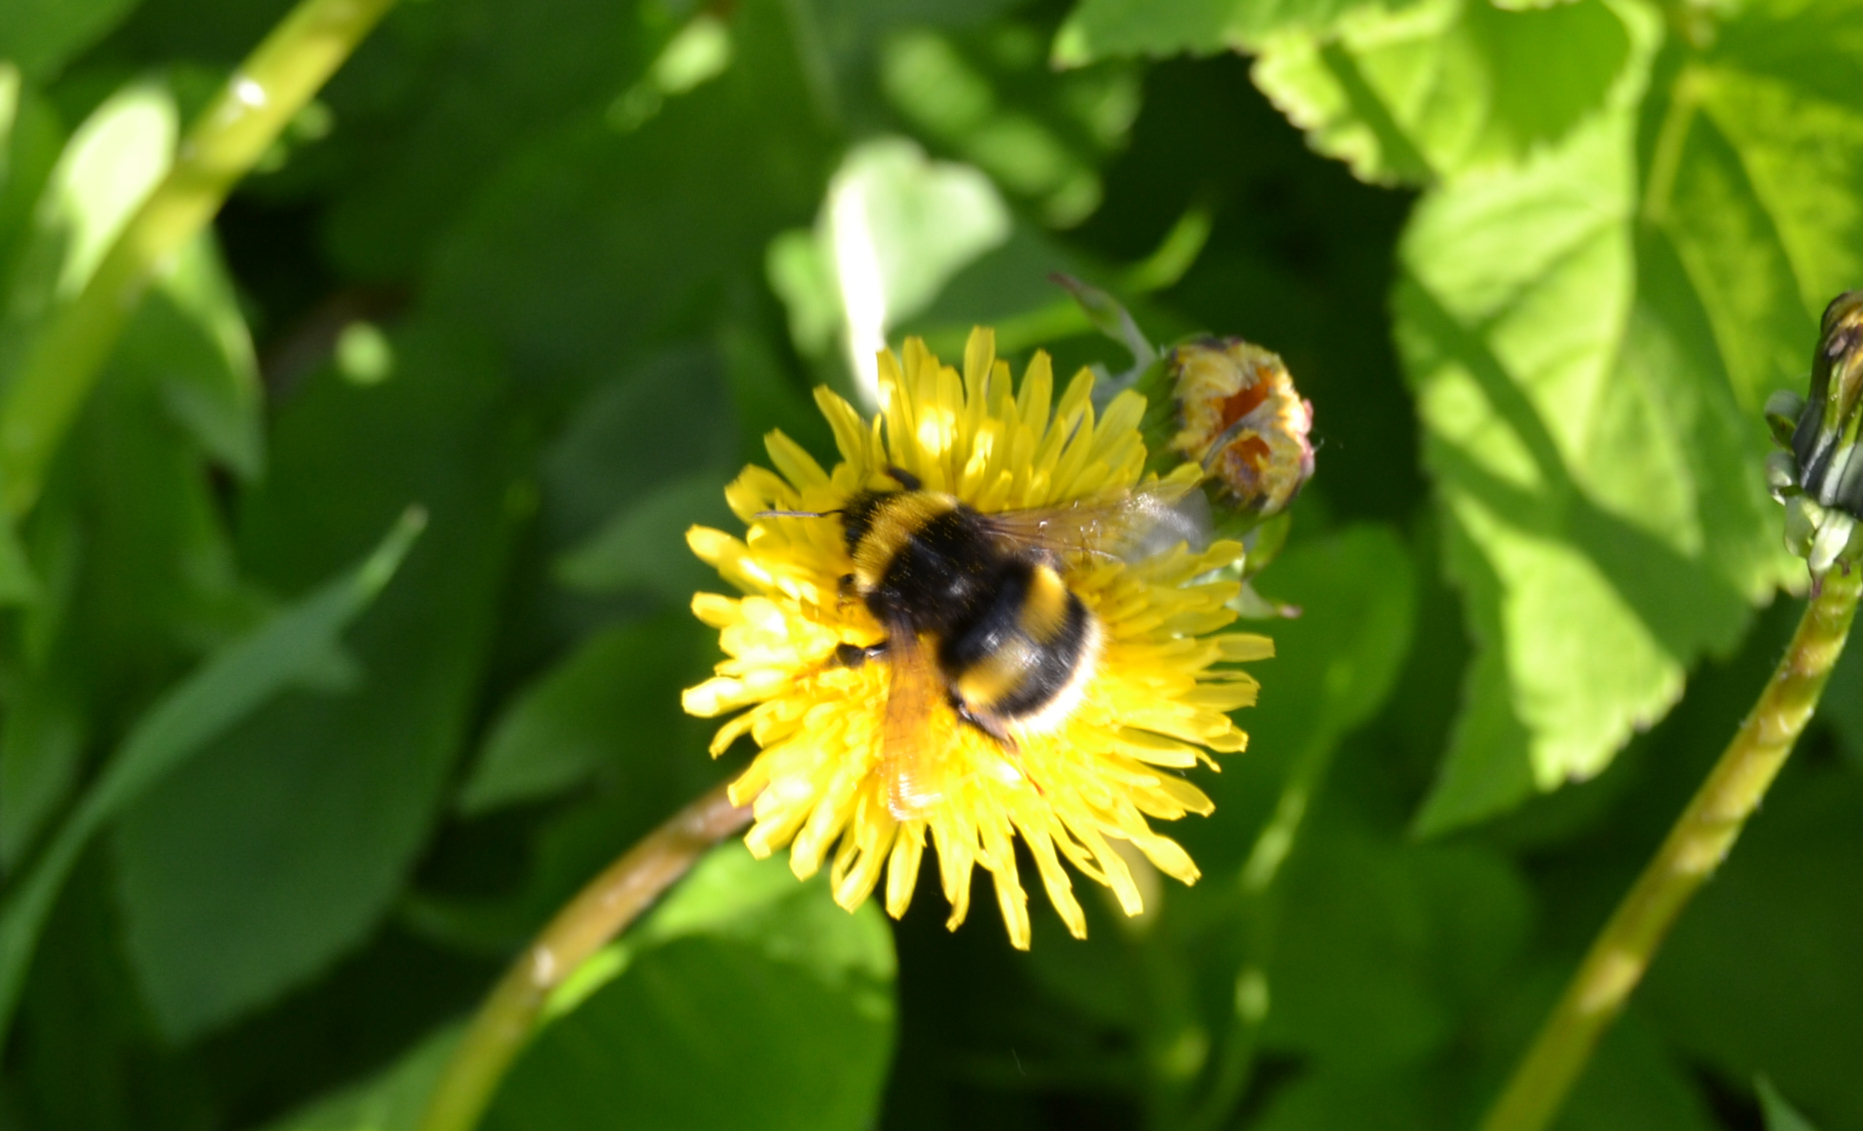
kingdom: Animalia
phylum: Arthropoda
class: Insecta
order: Hymenoptera
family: Apidae
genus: Bombus
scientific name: Bombus lucorum
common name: White-tailed bumblebee
